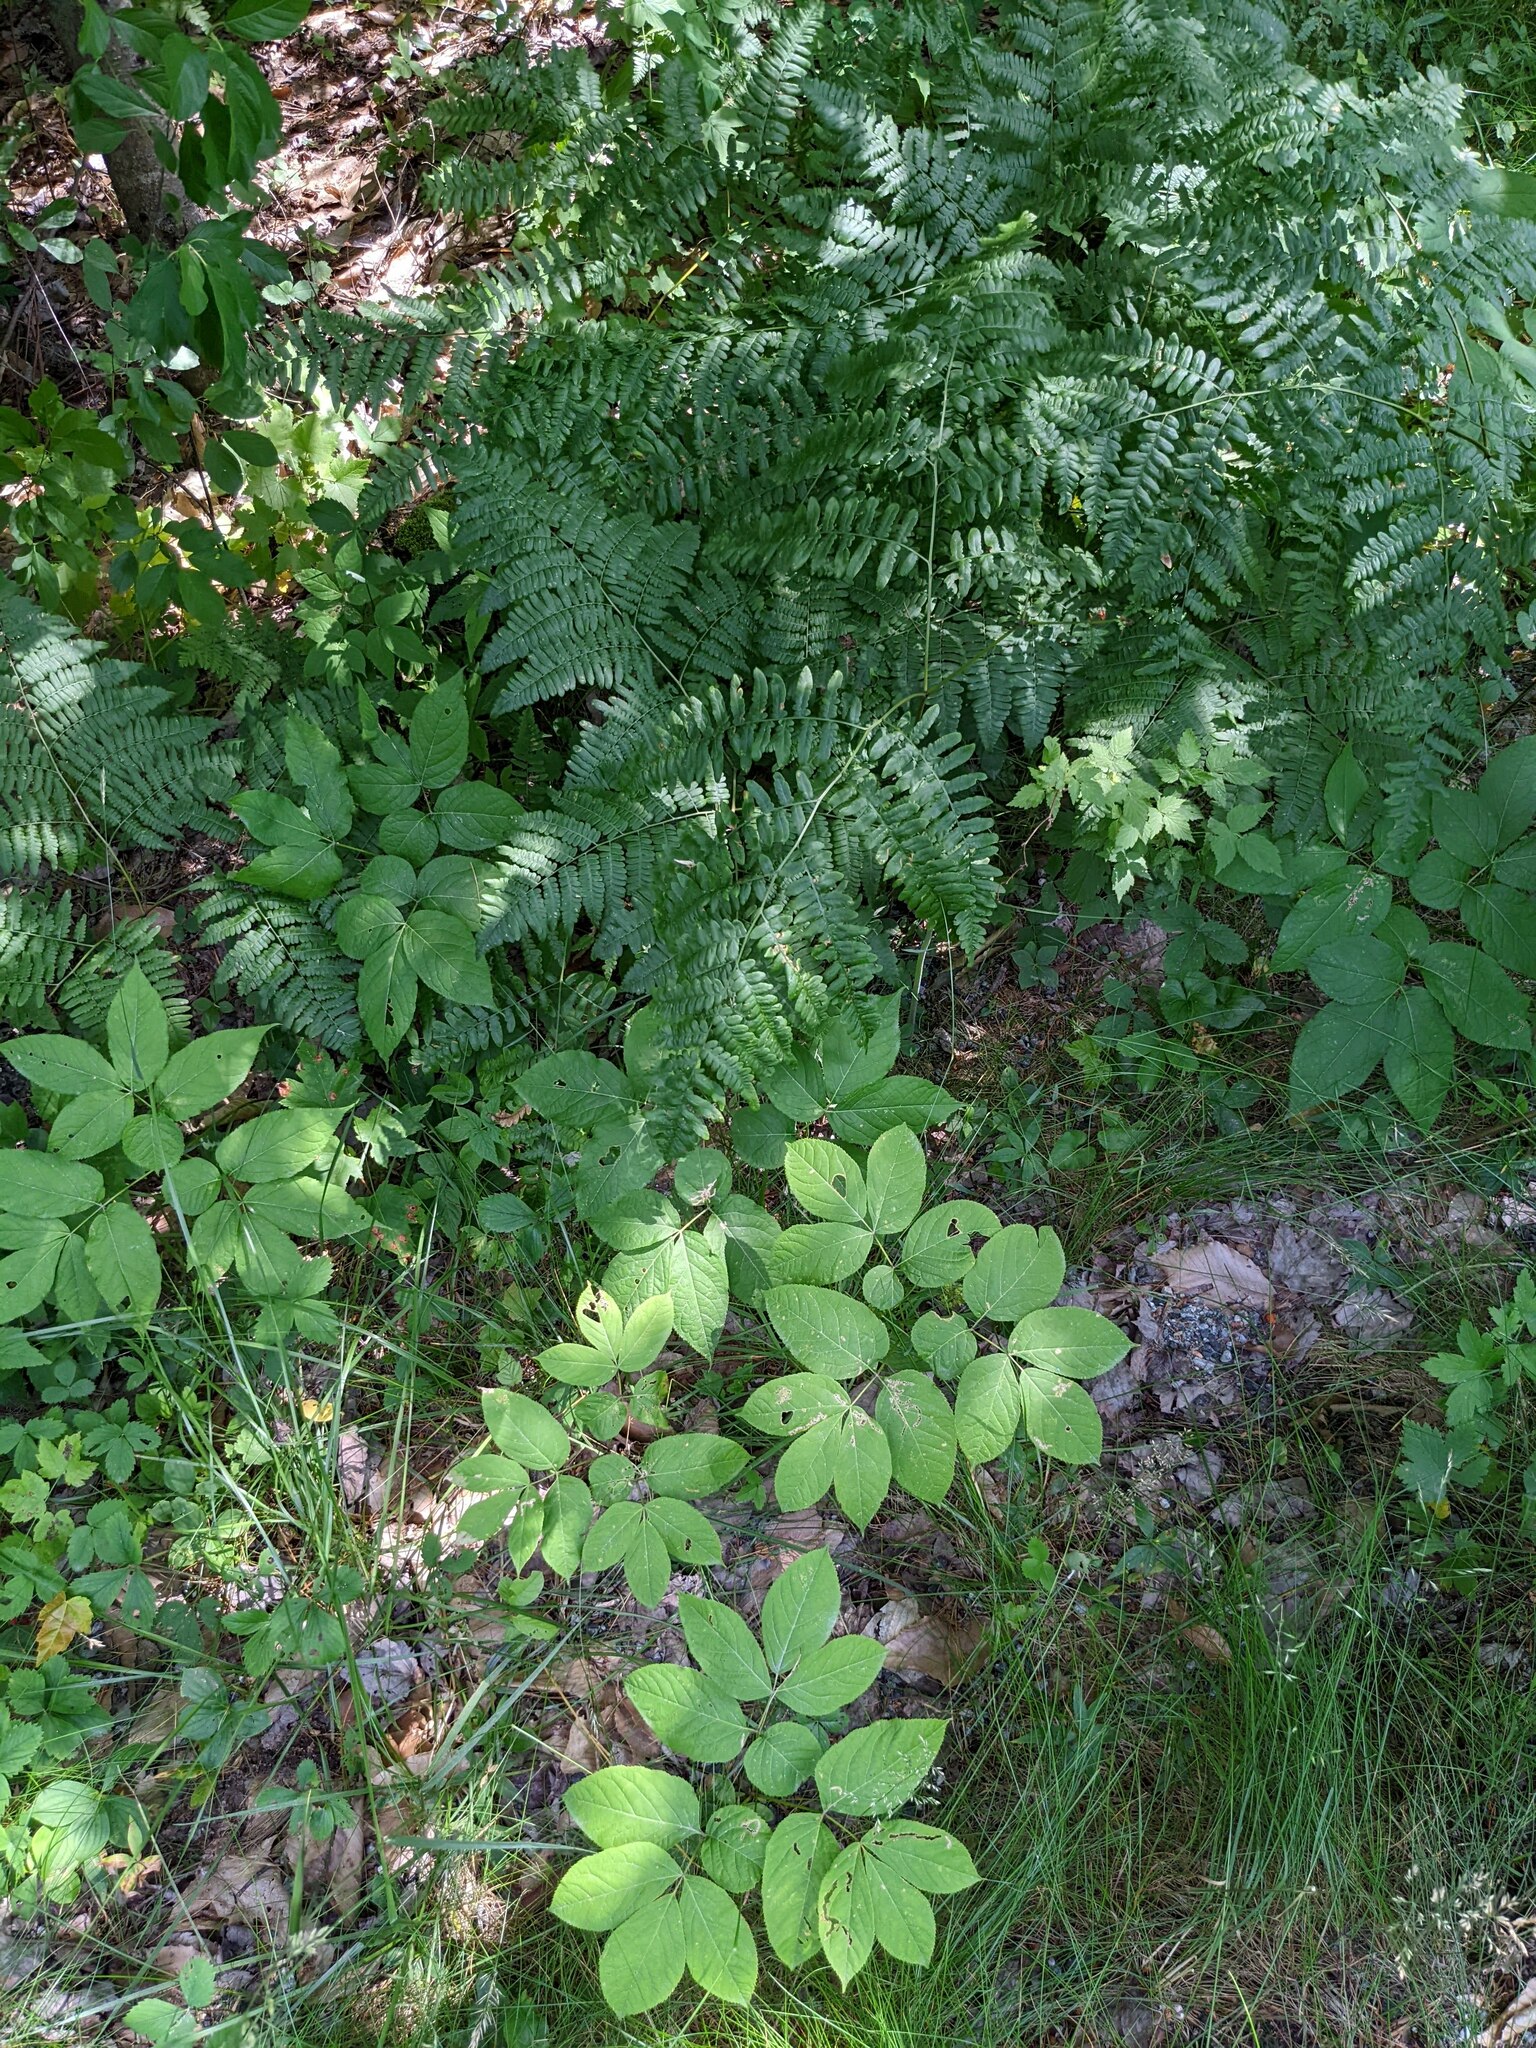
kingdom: Plantae
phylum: Tracheophyta
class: Magnoliopsida
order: Apiales
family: Araliaceae
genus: Aralia
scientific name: Aralia nudicaulis
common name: Wild sarsaparilla
